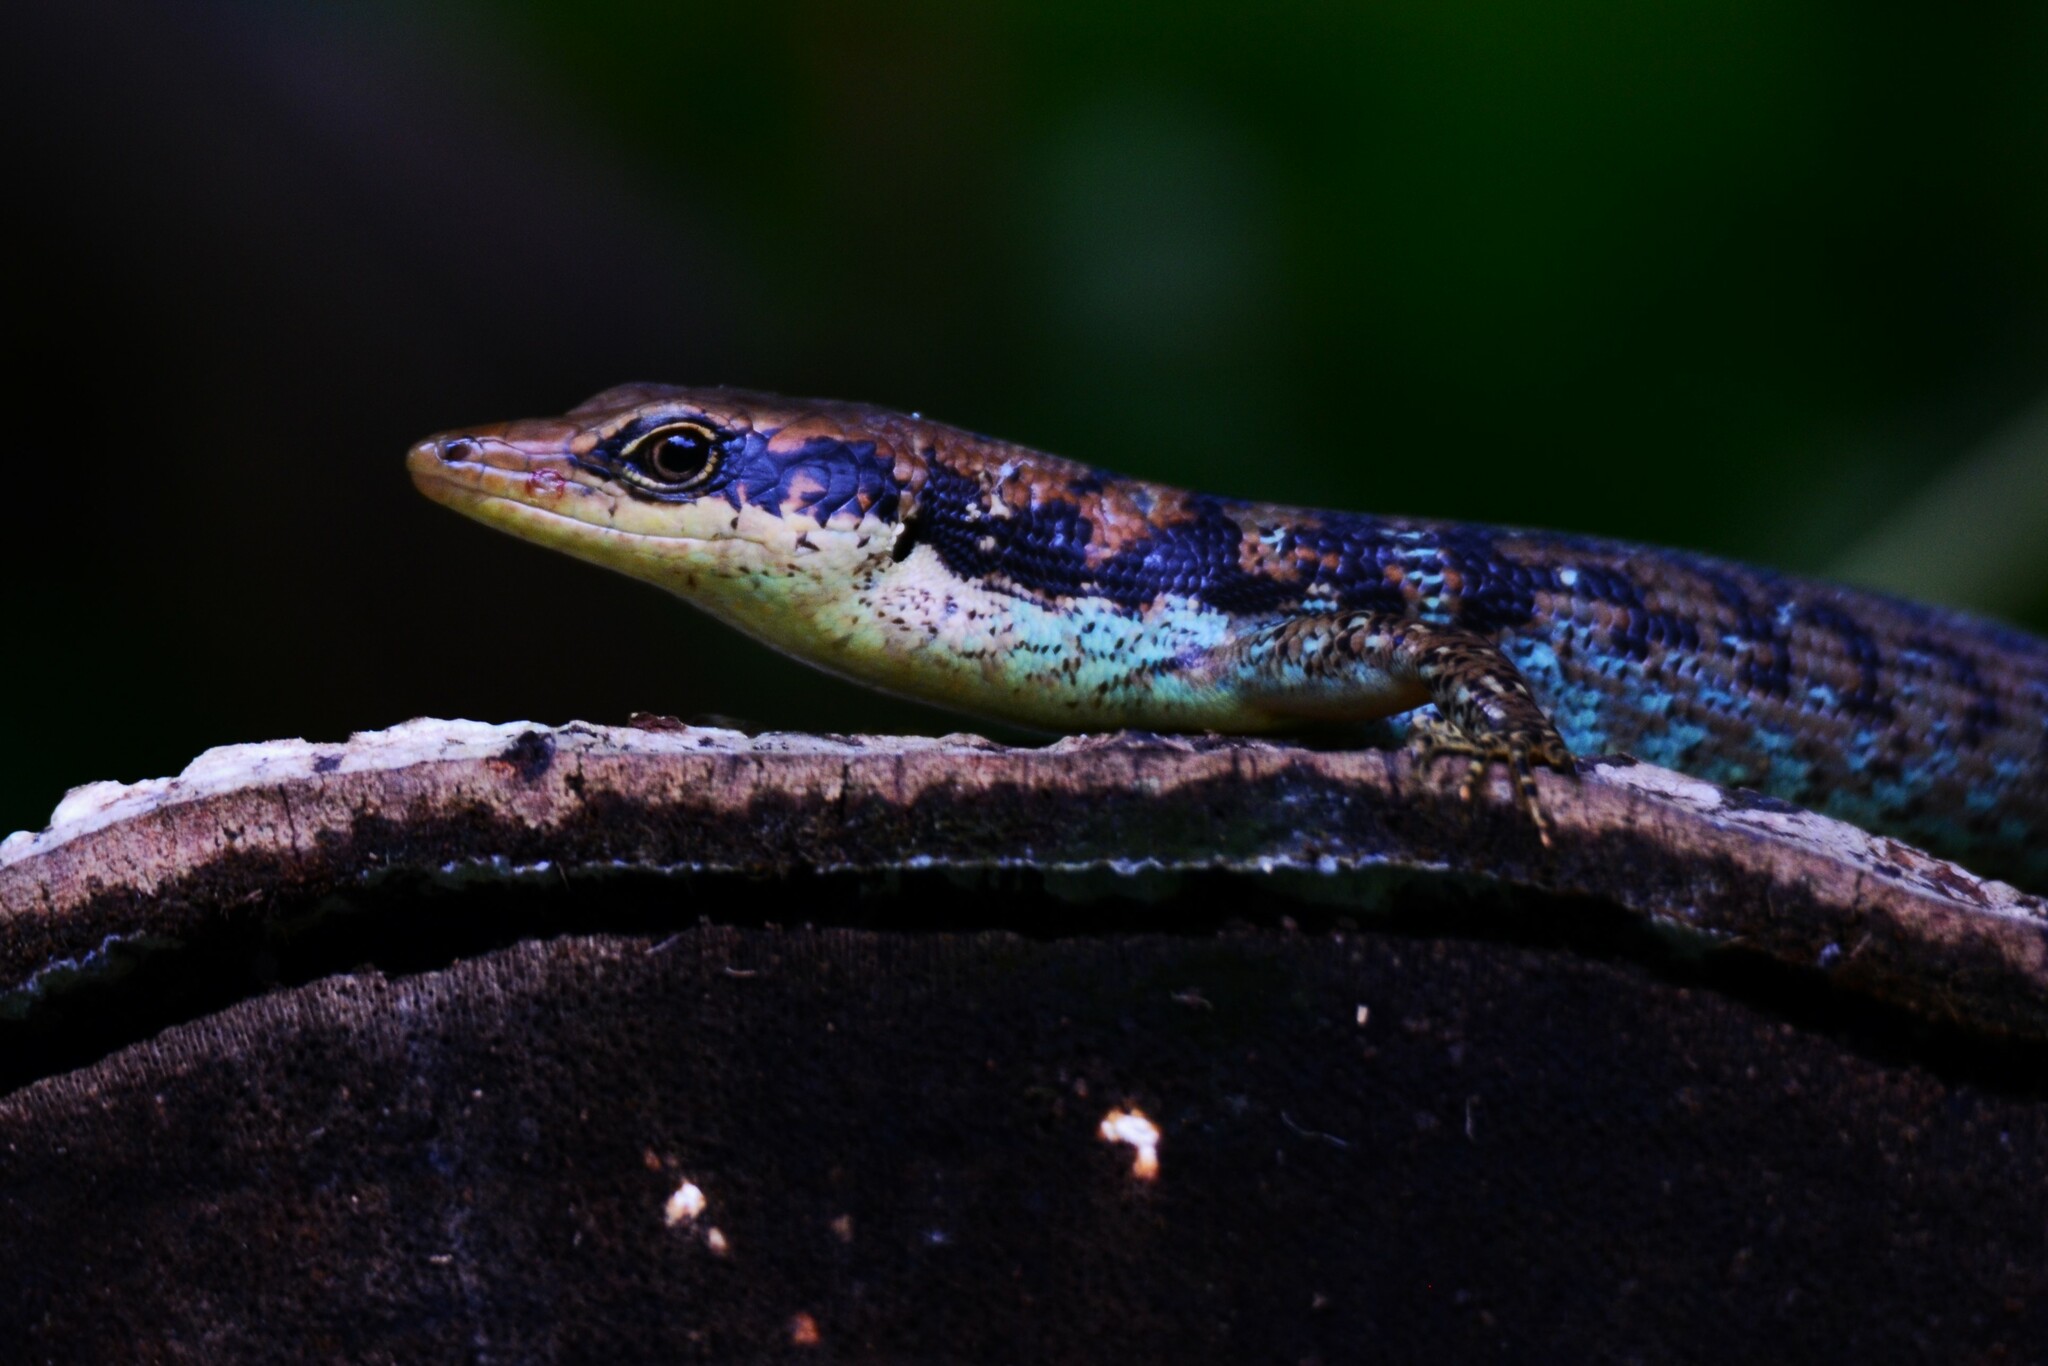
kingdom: Animalia
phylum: Chordata
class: Squamata
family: Scincidae
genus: Emoia
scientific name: Emoia tuitarere
